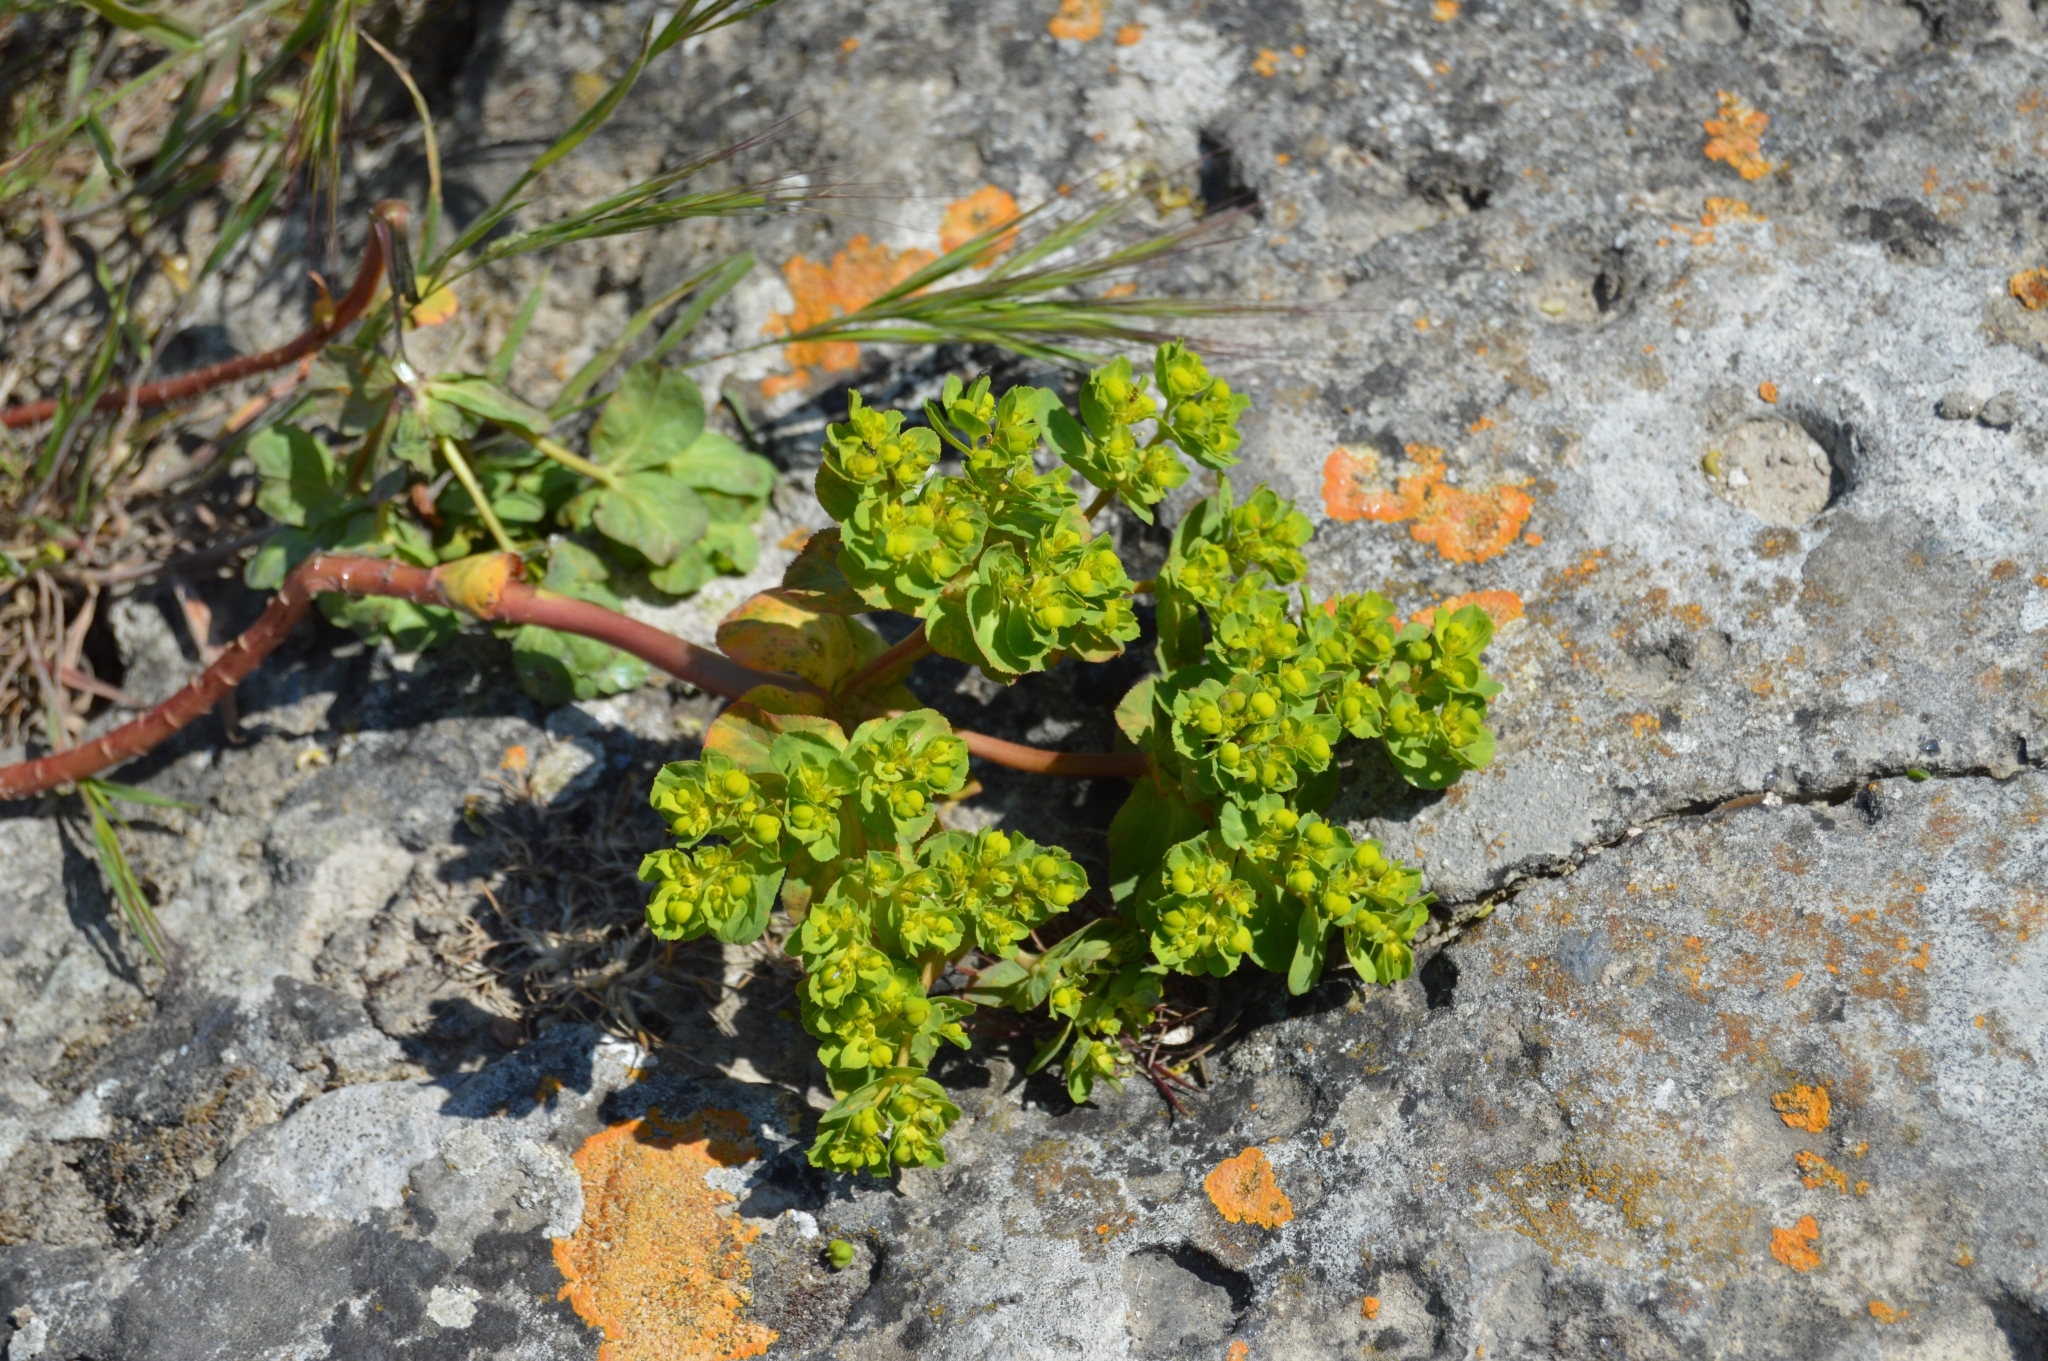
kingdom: Plantae
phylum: Tracheophyta
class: Magnoliopsida
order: Malpighiales
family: Euphorbiaceae
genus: Euphorbia
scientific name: Euphorbia helioscopia
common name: Sun spurge
